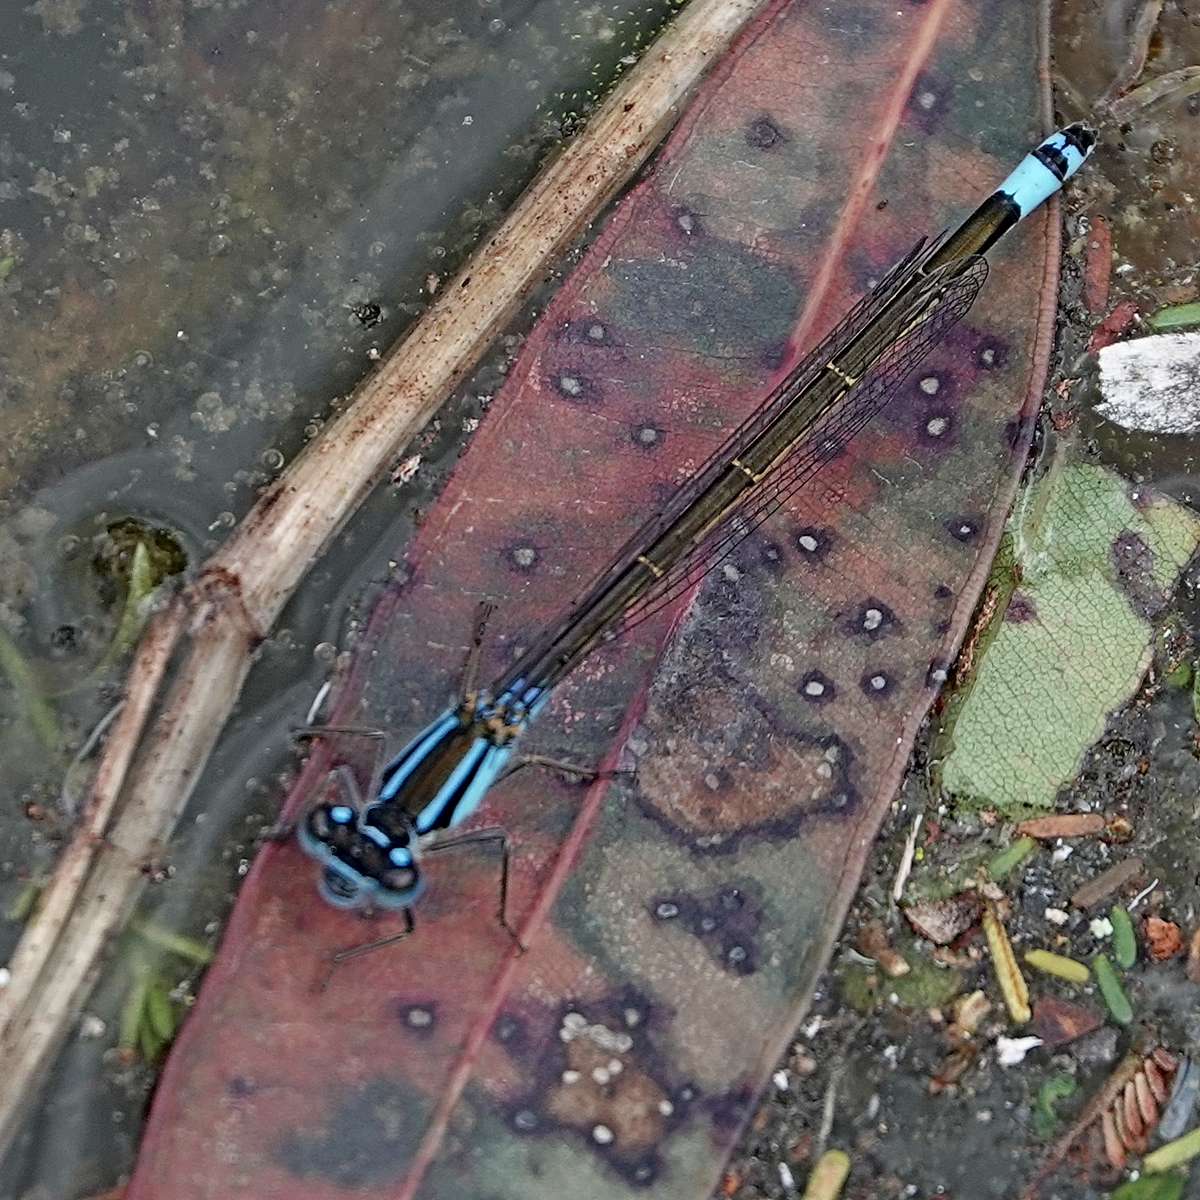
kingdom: Animalia
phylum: Arthropoda
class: Insecta
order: Odonata
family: Coenagrionidae
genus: Ischnura
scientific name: Ischnura heterosticta
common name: Common bluetail
